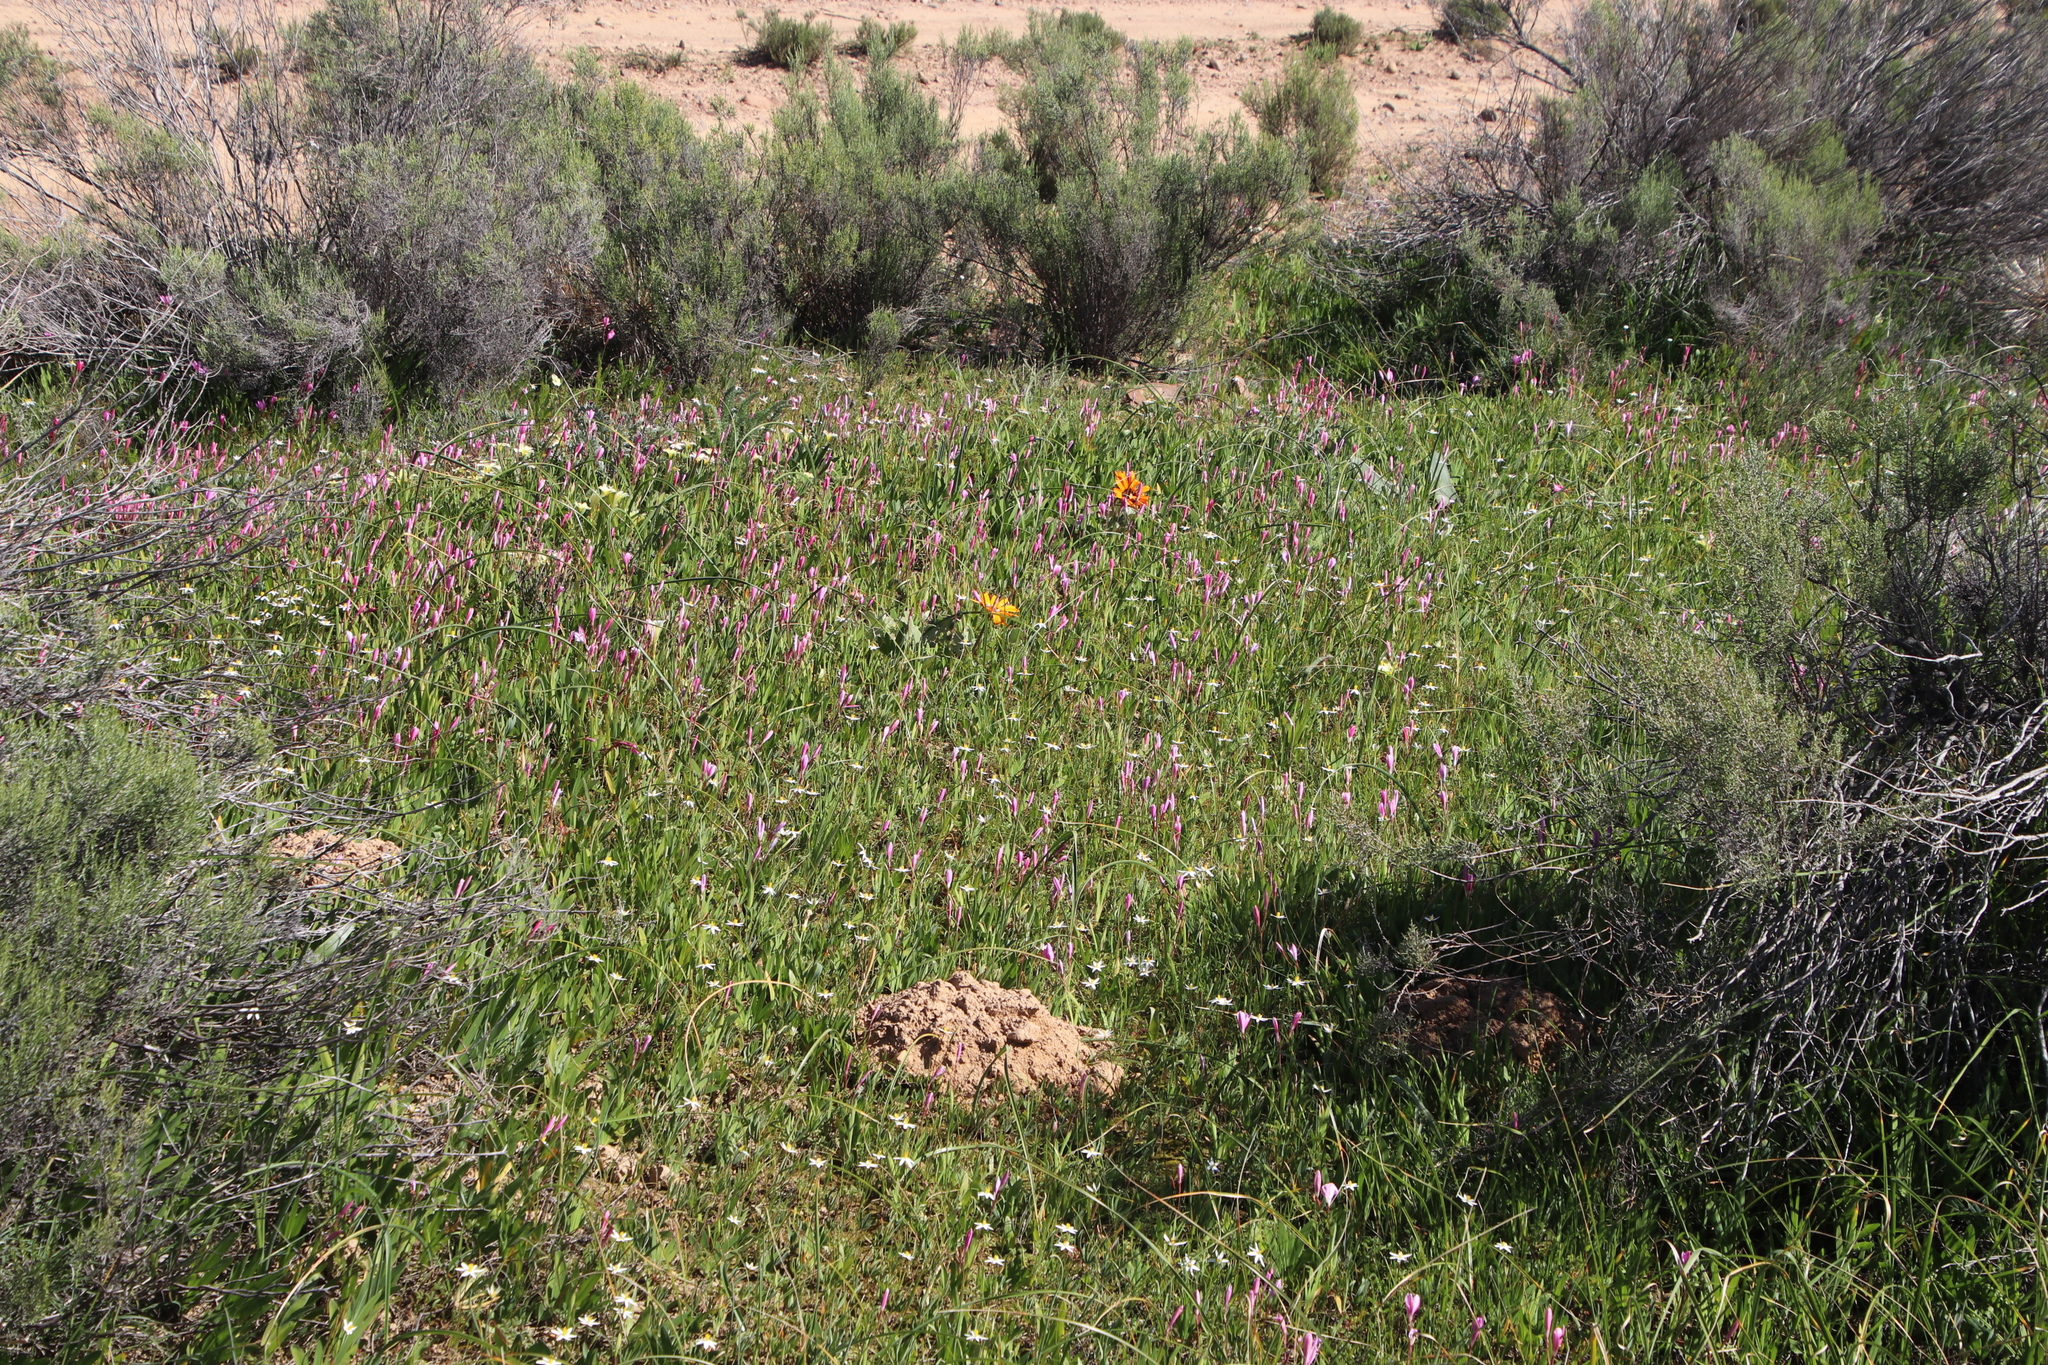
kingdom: Plantae
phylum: Tracheophyta
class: Liliopsida
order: Asparagales
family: Iridaceae
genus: Hesperantha
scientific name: Hesperantha pauciflora
